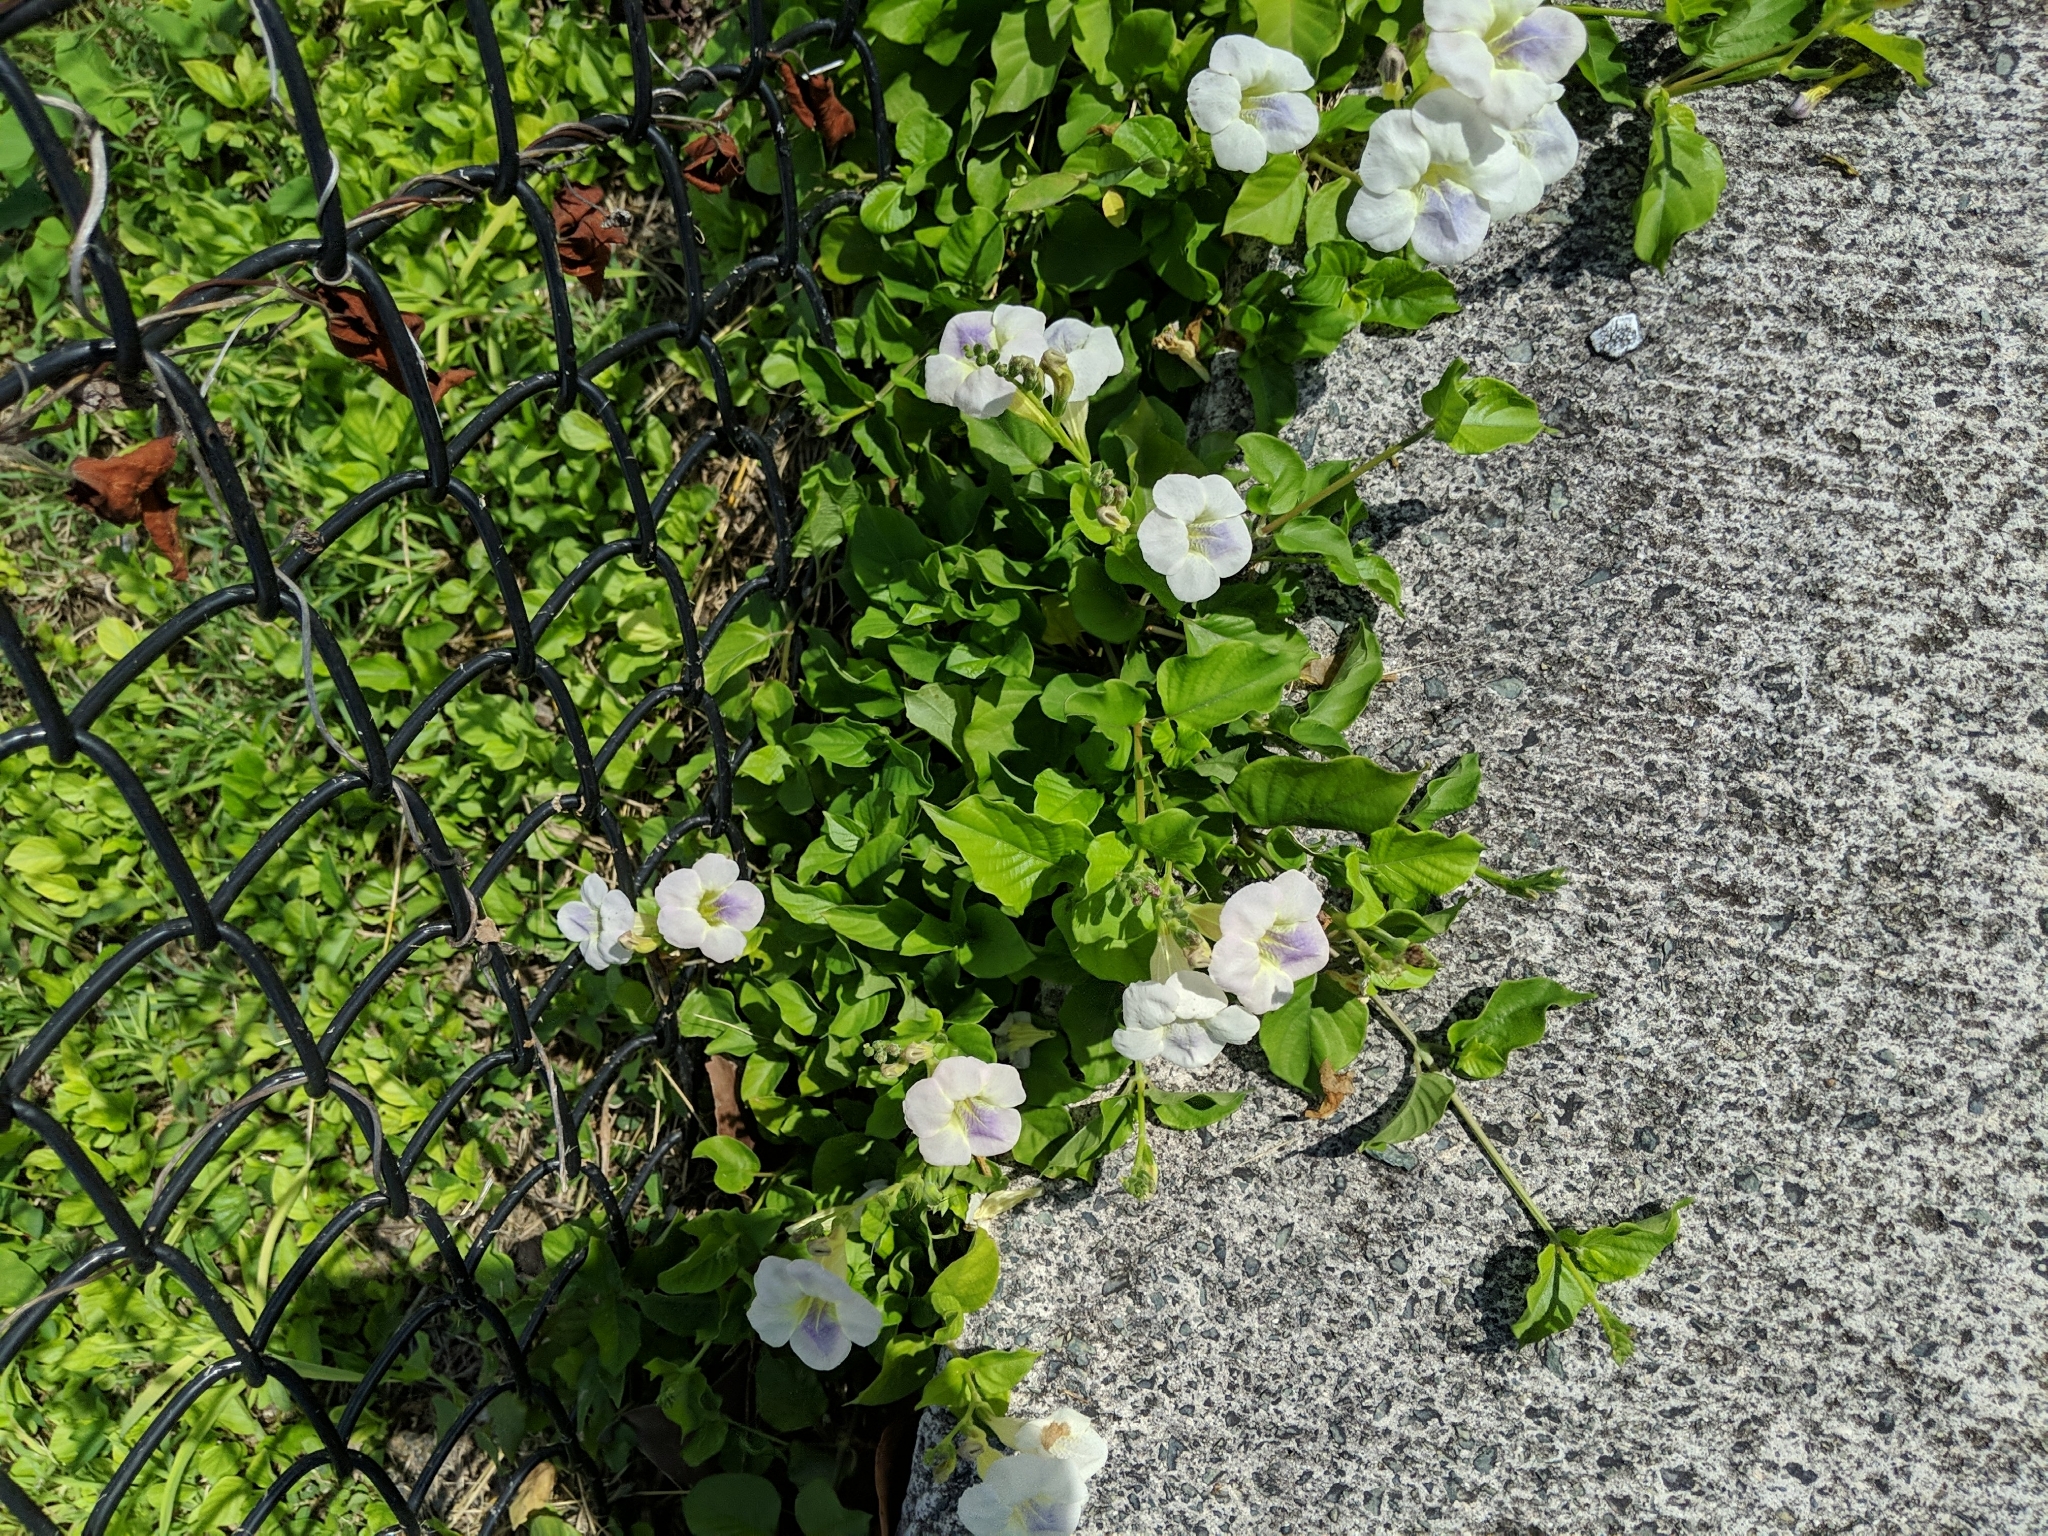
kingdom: Plantae
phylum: Tracheophyta
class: Magnoliopsida
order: Lamiales
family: Acanthaceae
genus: Asystasia
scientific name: Asystasia gangetica
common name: Chinese violet
